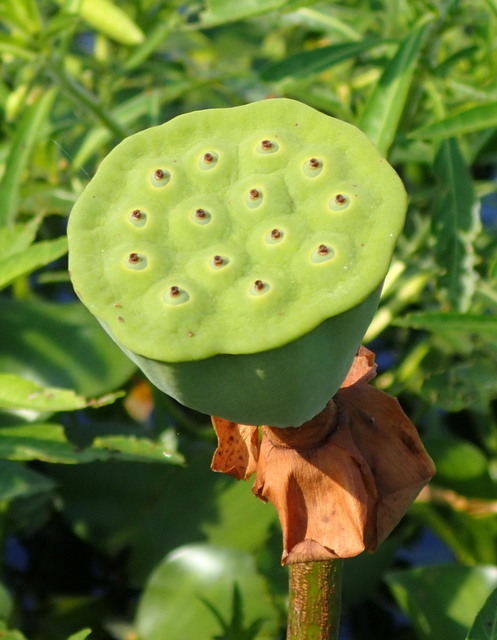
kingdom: Plantae
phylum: Tracheophyta
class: Magnoliopsida
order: Proteales
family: Nelumbonaceae
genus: Nelumbo
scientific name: Nelumbo lutea
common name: American lotus
